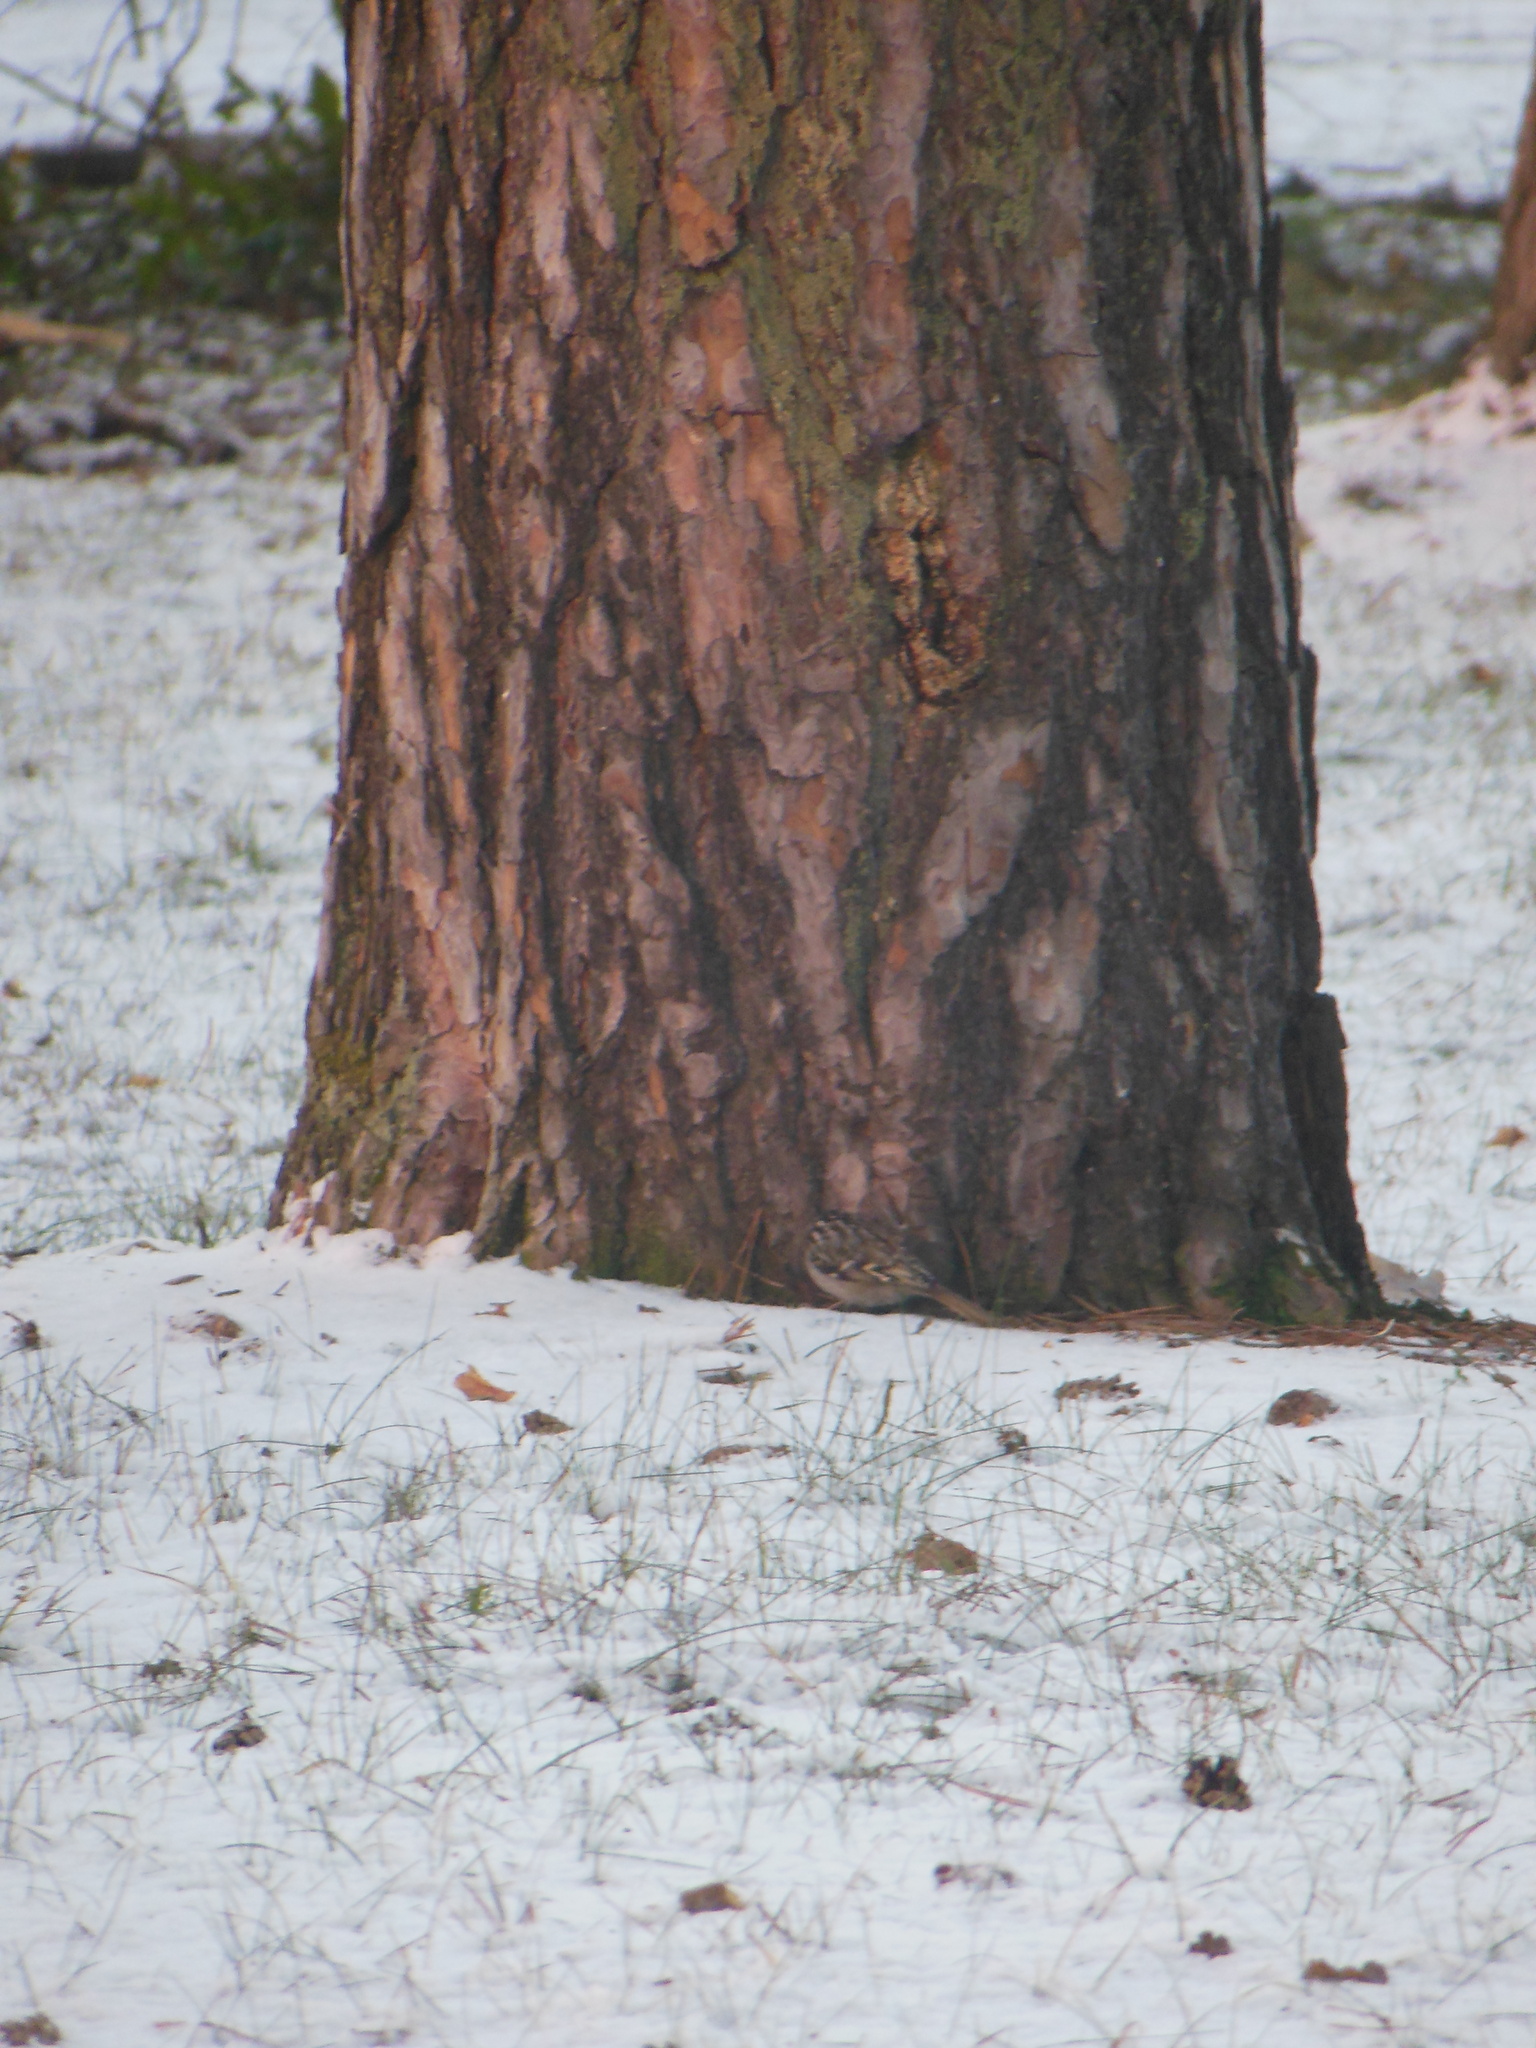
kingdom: Animalia
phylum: Chordata
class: Aves
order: Passeriformes
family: Certhiidae
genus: Certhia
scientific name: Certhia brachydactyla
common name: Short-toed treecreeper
